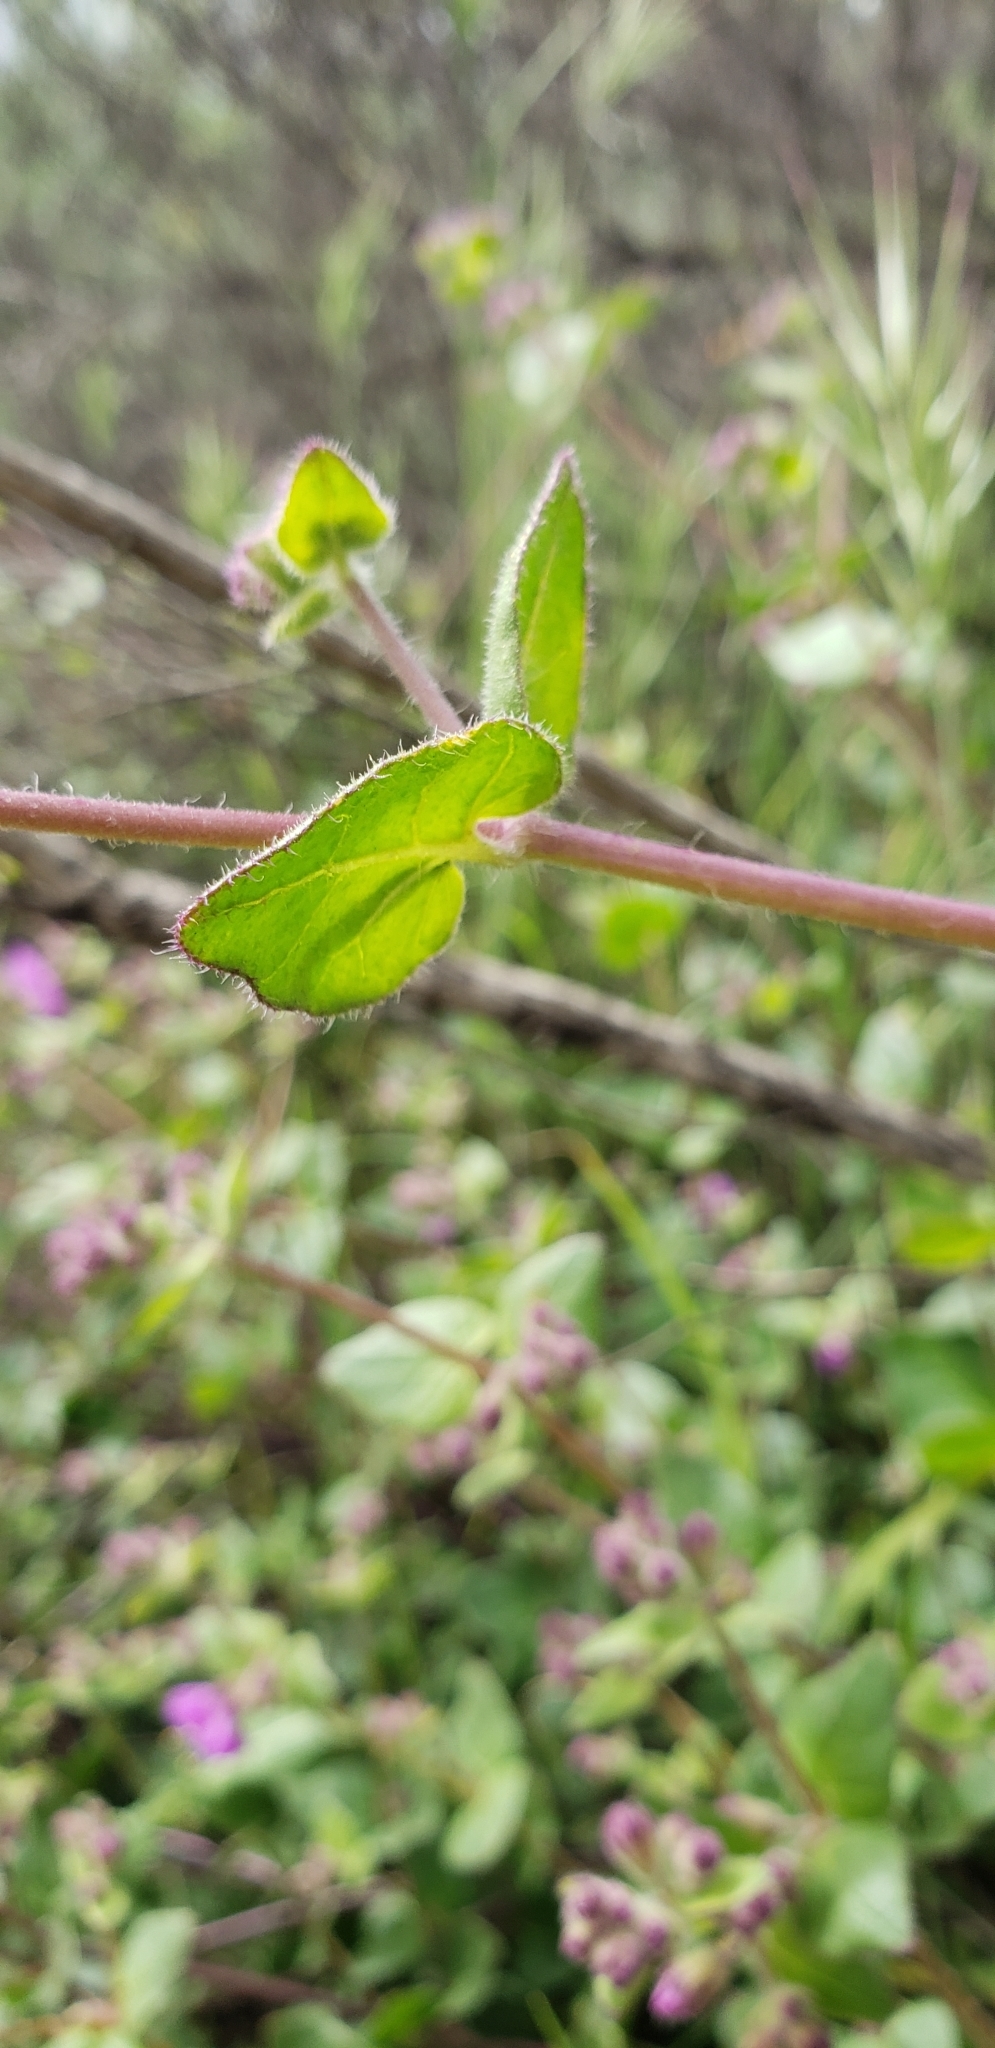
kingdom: Plantae
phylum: Tracheophyta
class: Magnoliopsida
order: Caryophyllales
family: Nyctaginaceae
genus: Mirabilis
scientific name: Mirabilis laevis
